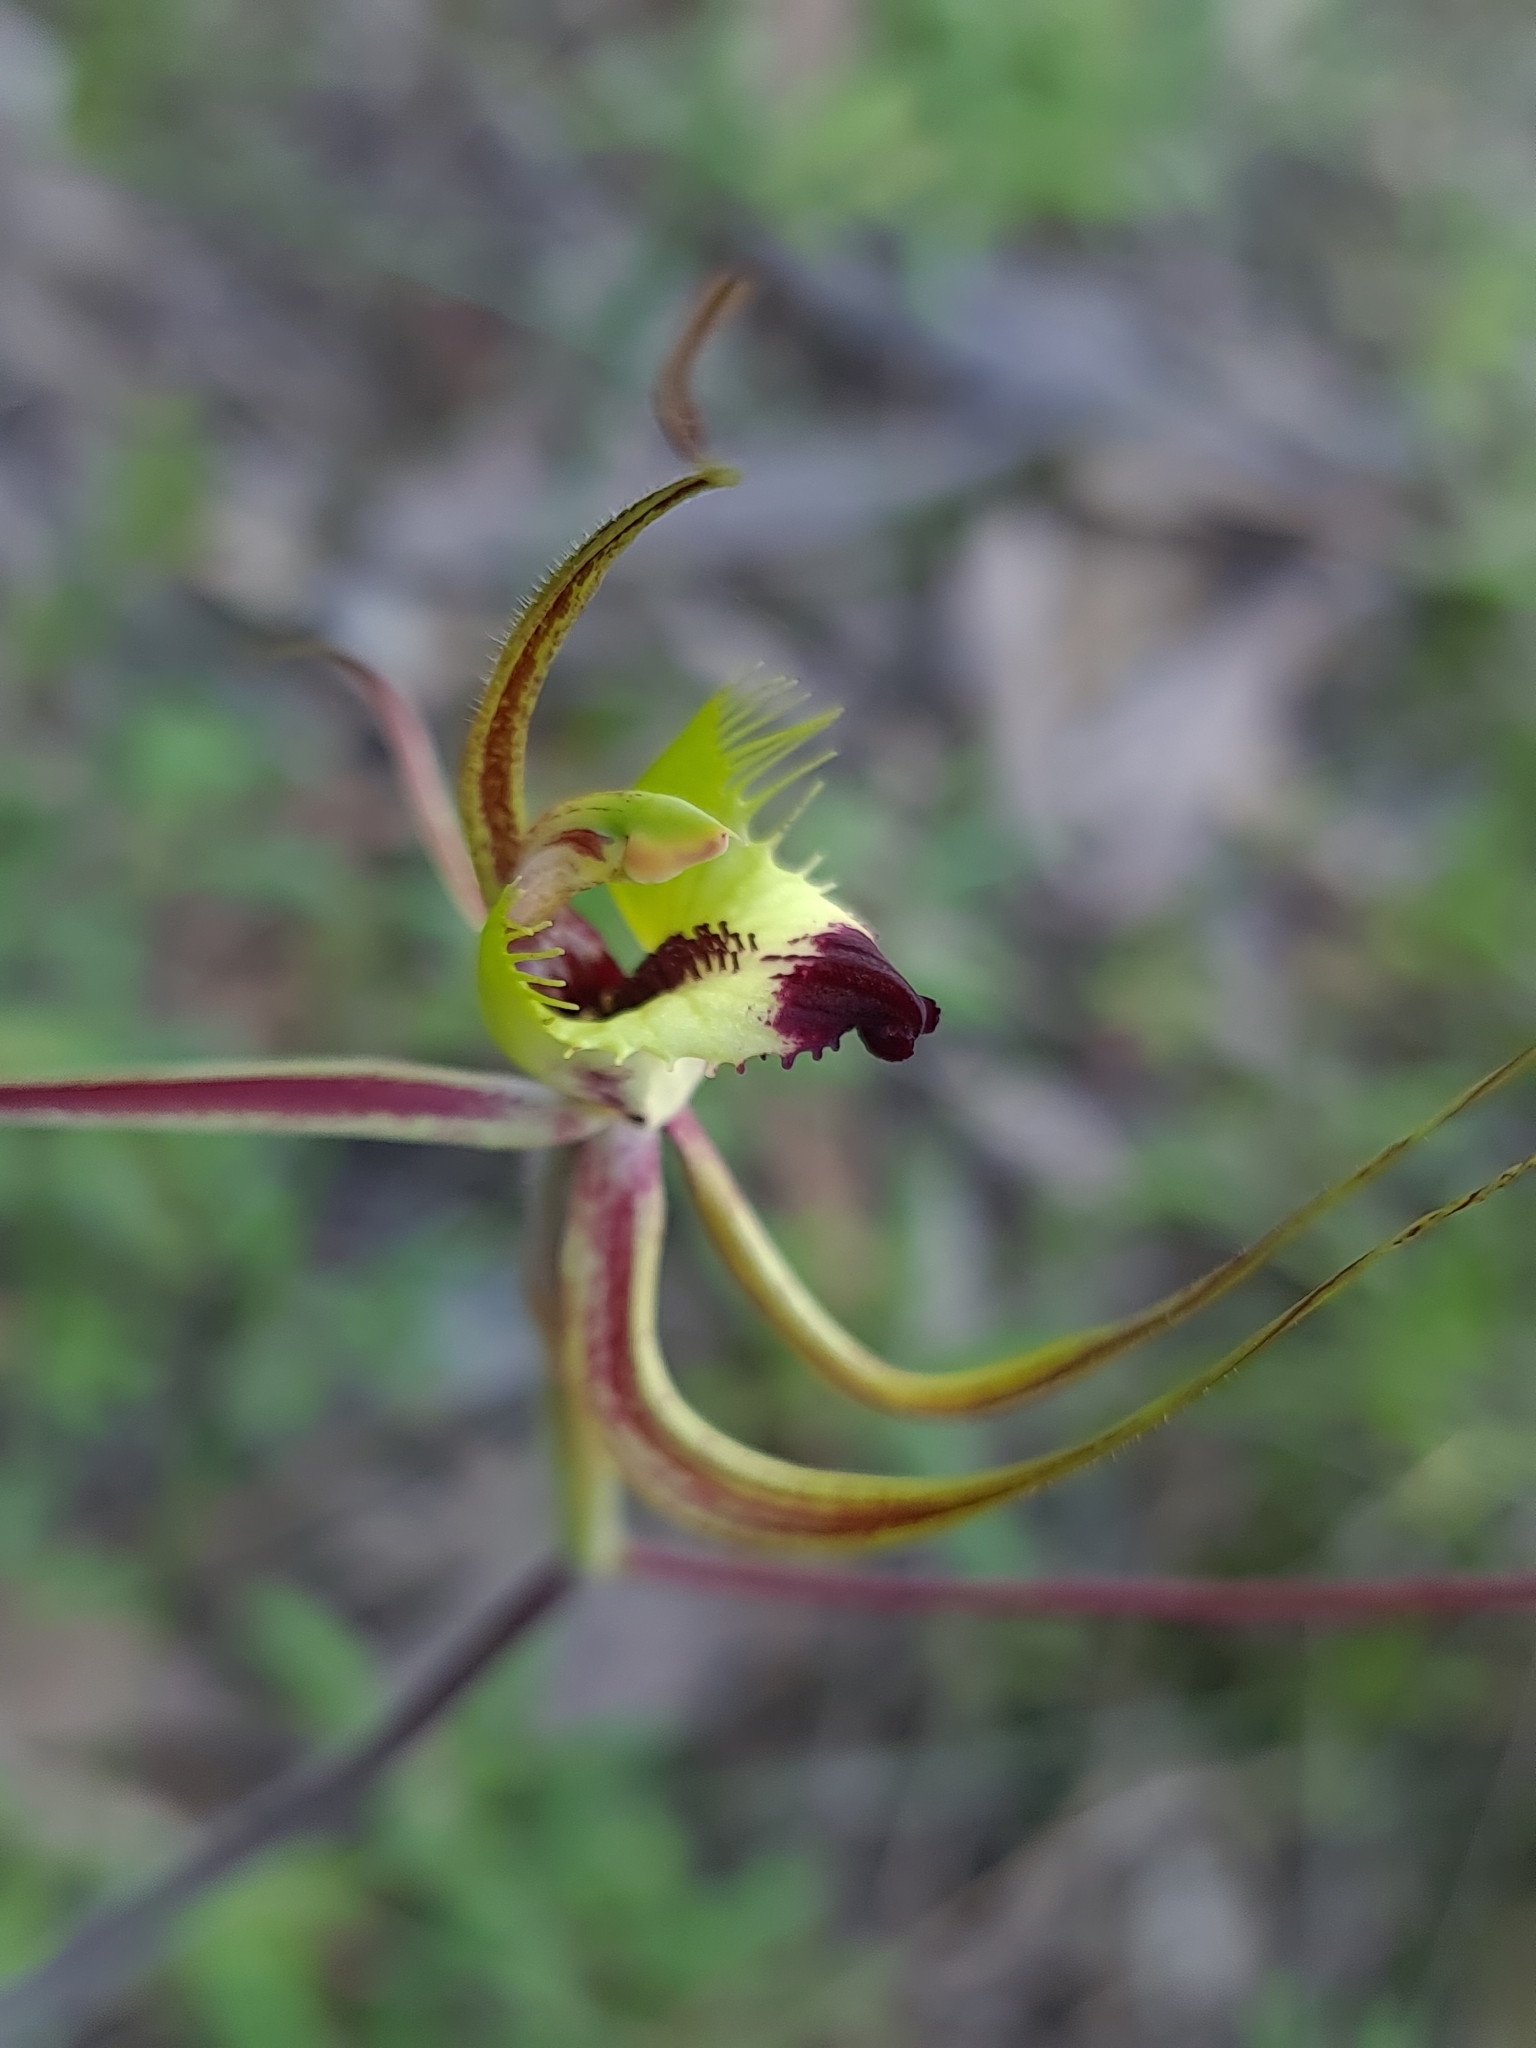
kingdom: Plantae
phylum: Tracheophyta
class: Liliopsida
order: Asparagales
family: Orchidaceae
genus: Caladenia
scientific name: Caladenia falcata
